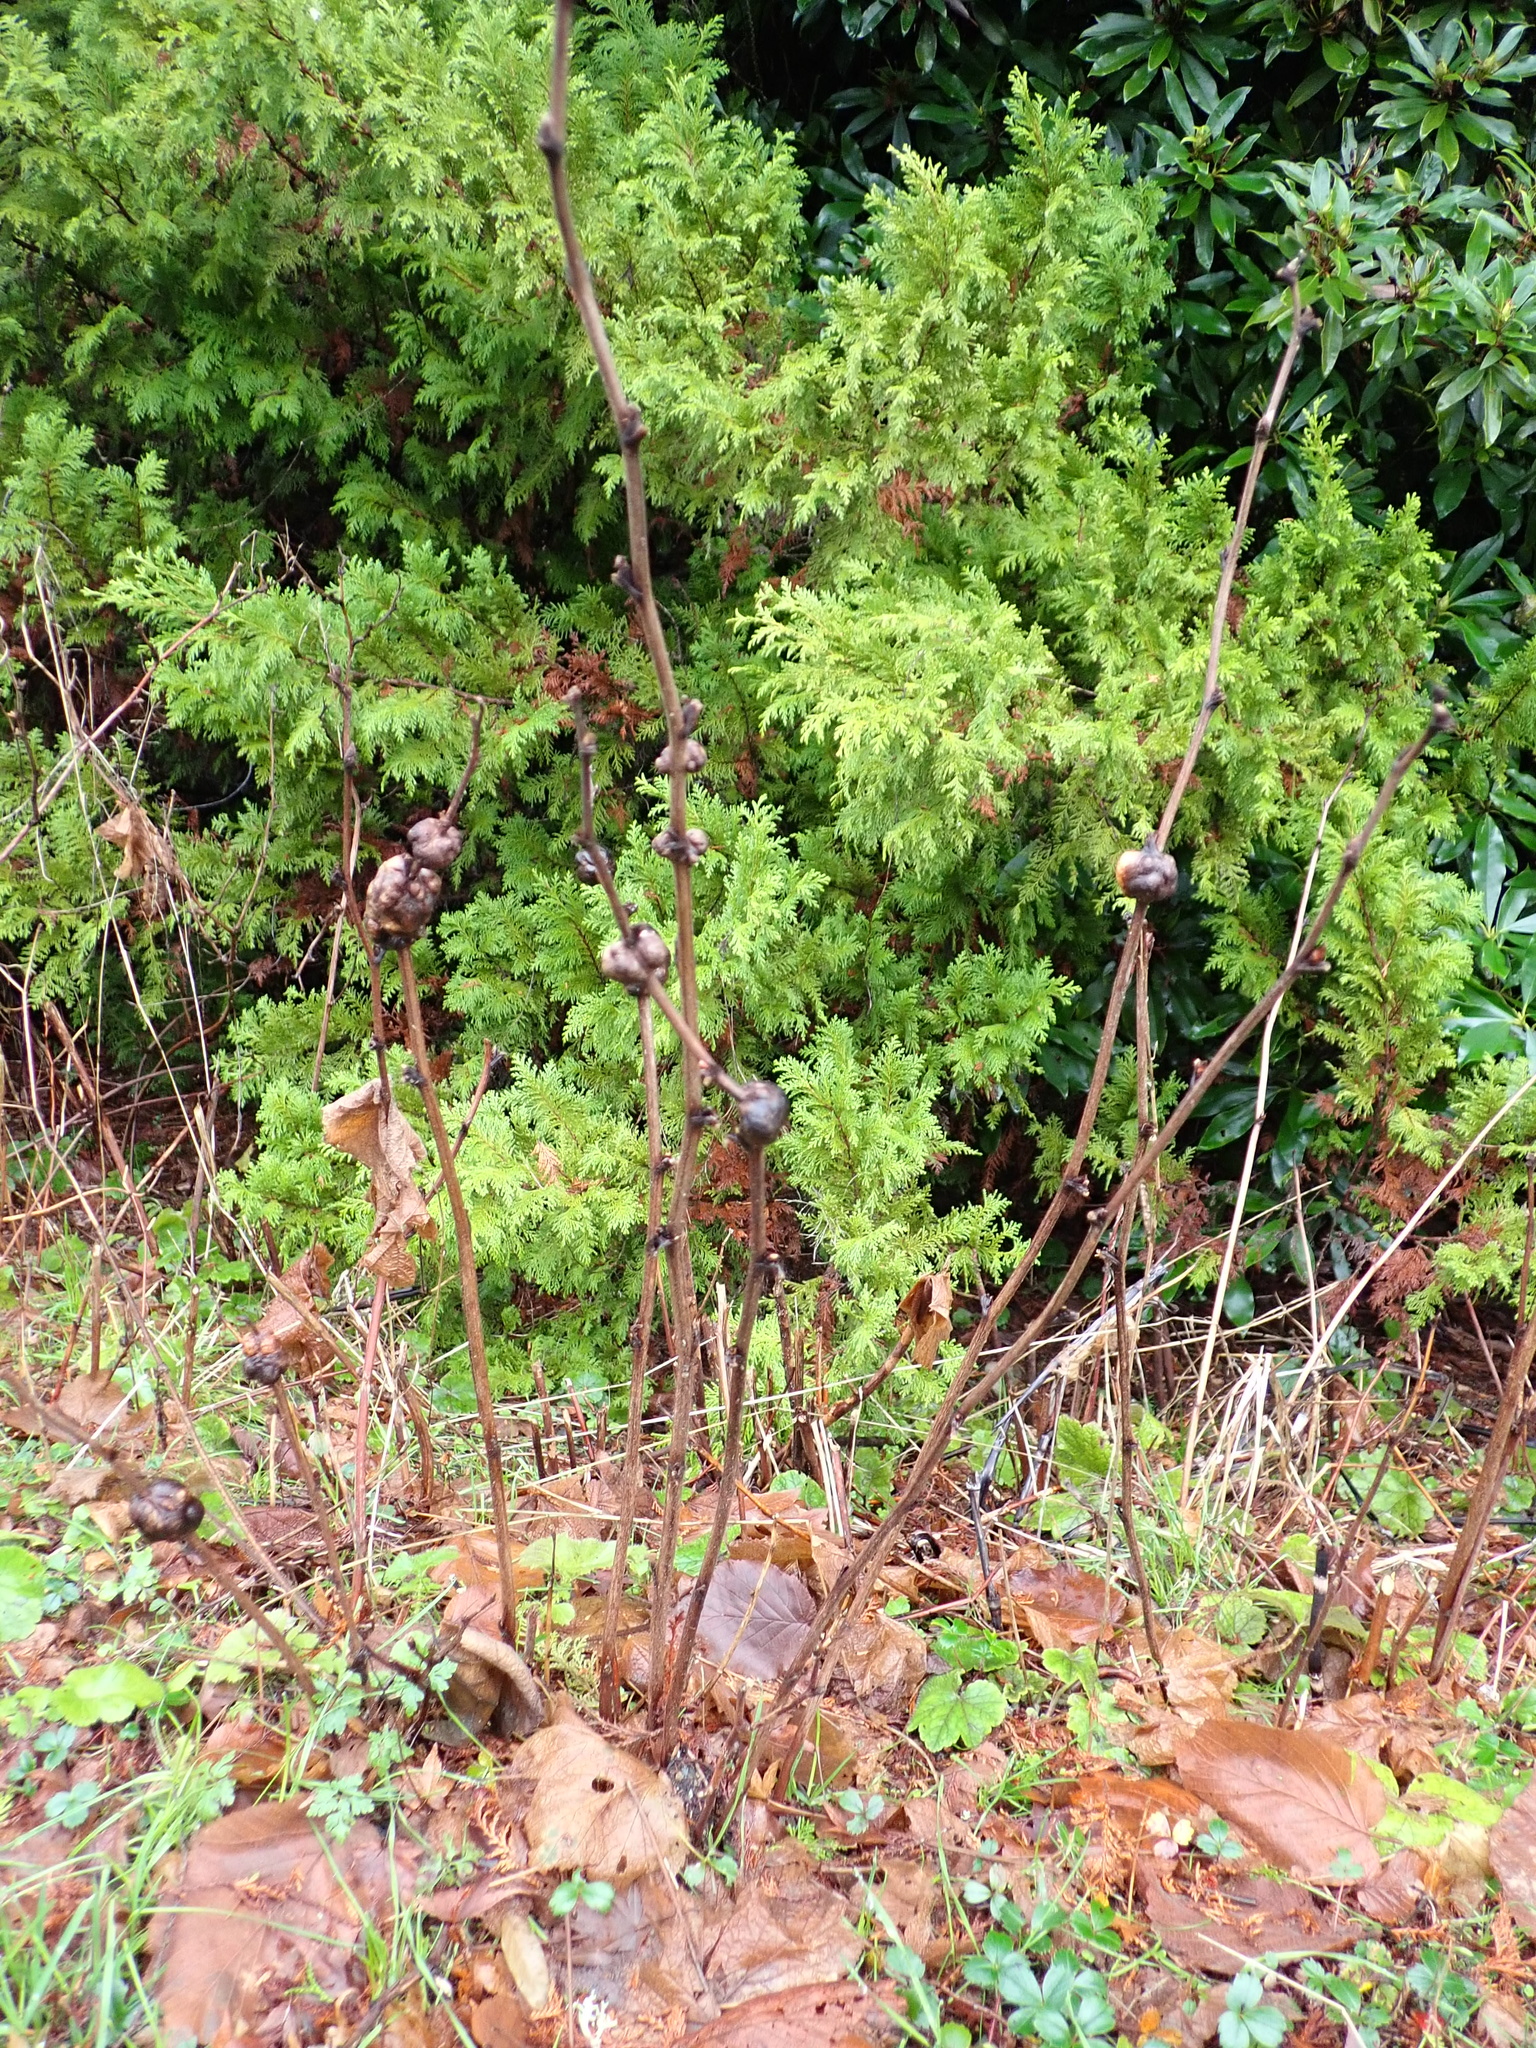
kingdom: Animalia
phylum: Arthropoda
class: Insecta
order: Hymenoptera
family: Cynipidae
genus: Diastrophus
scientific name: Diastrophus
